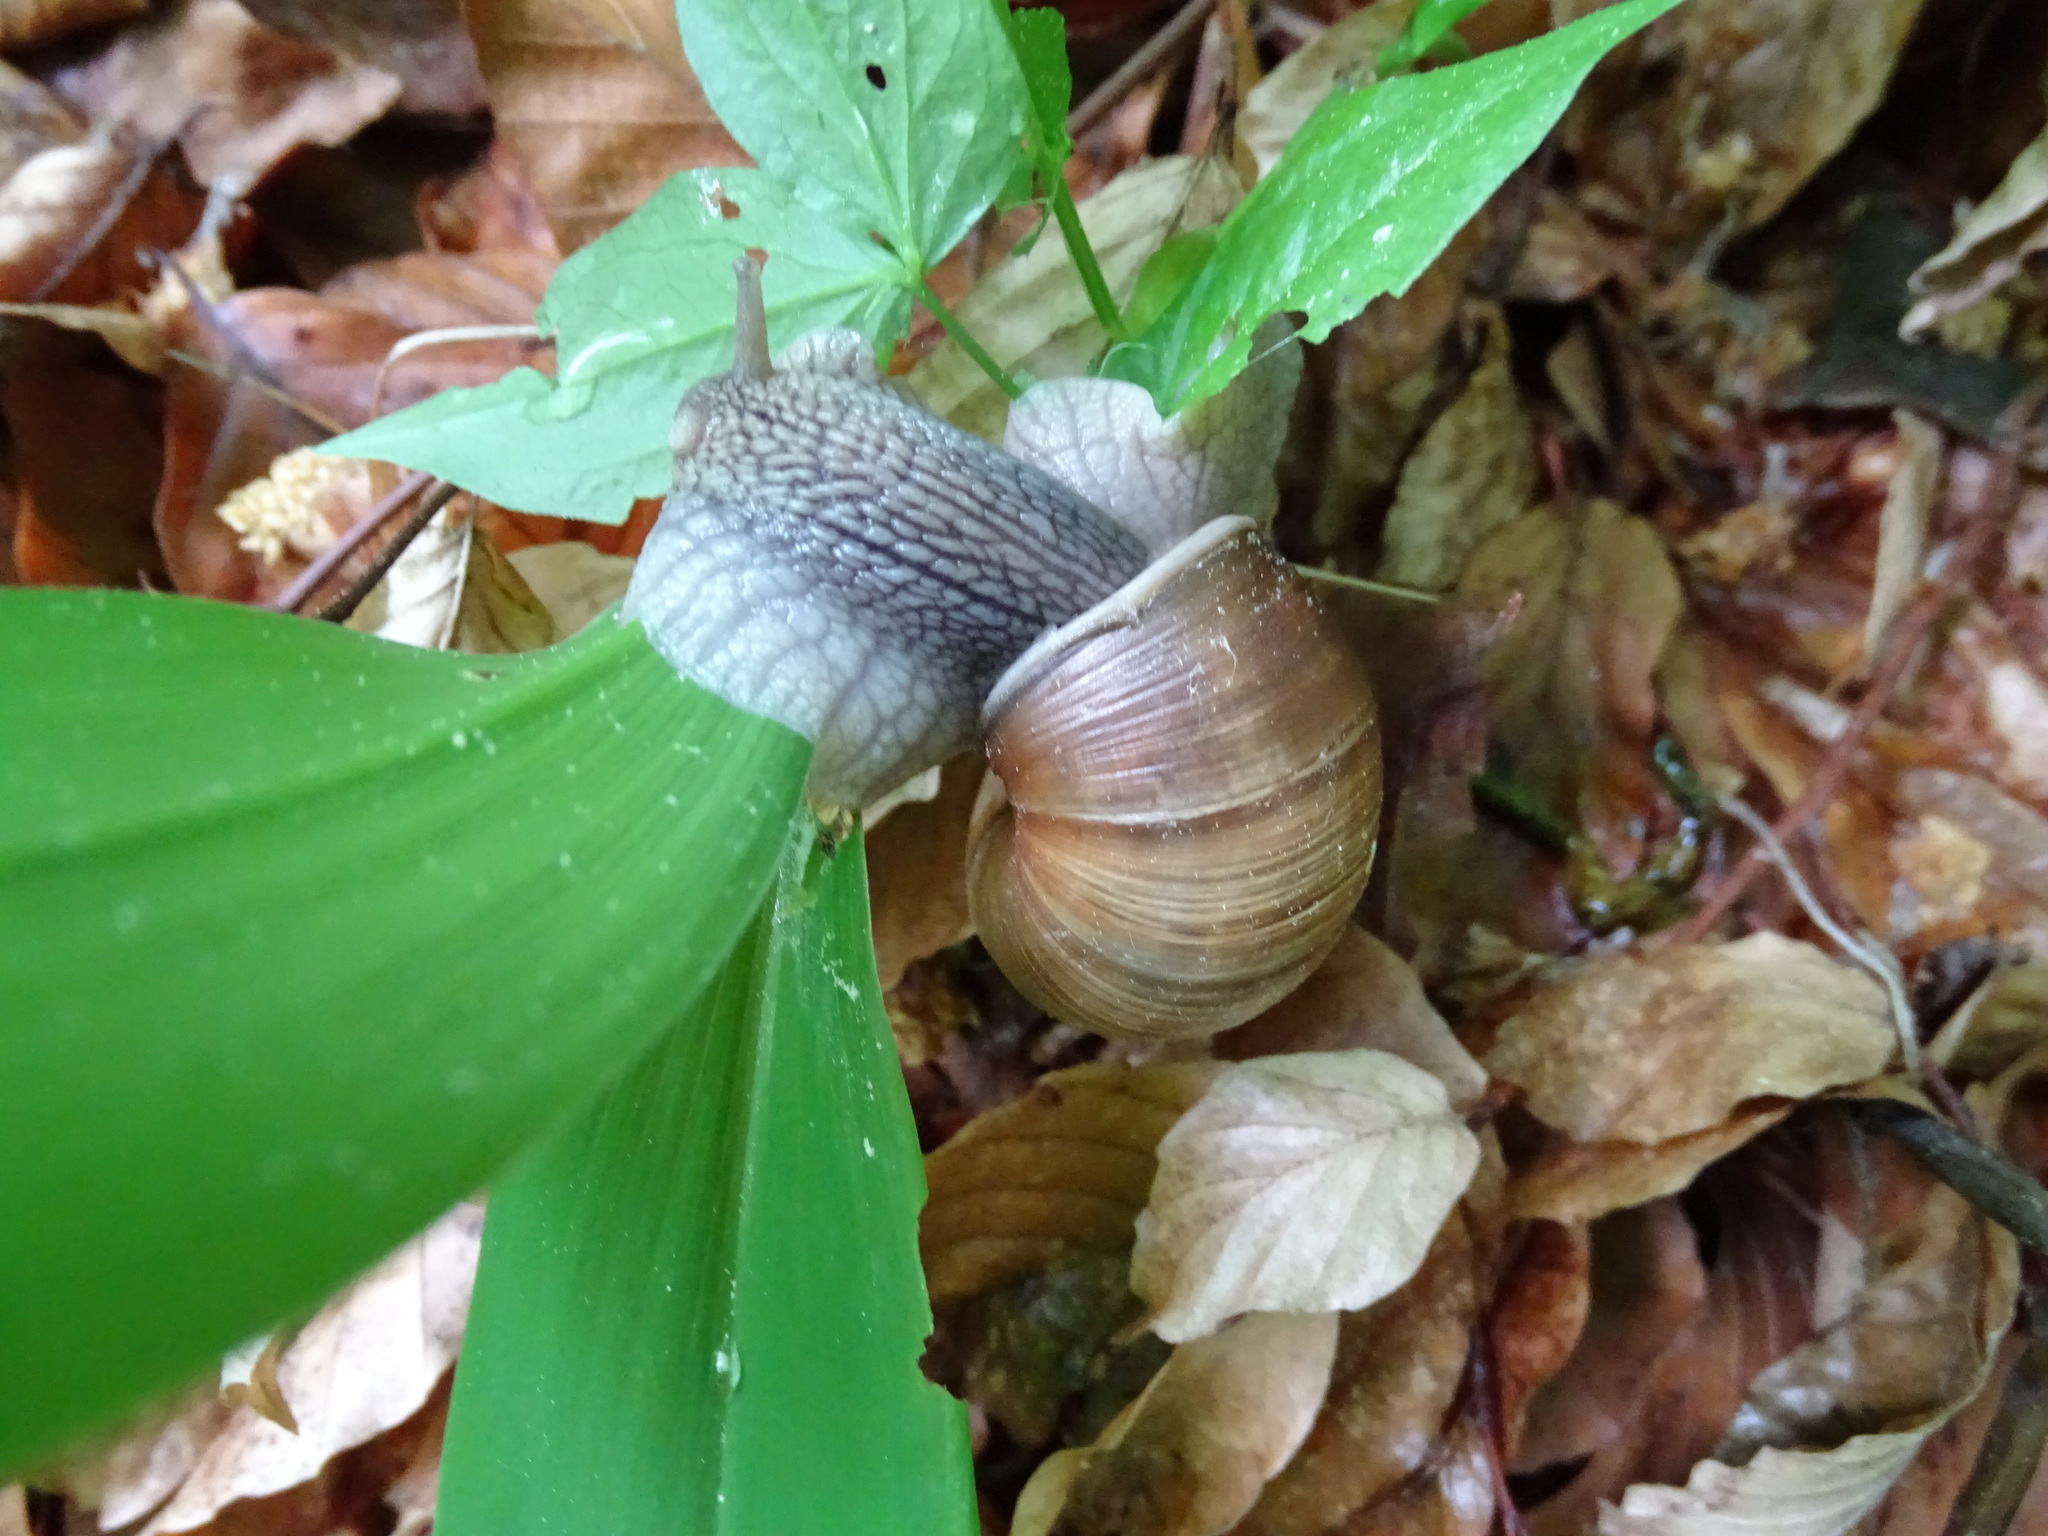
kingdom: Animalia
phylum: Mollusca
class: Gastropoda
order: Stylommatophora
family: Helicidae
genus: Helix
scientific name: Helix pomatia
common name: Roman snail
